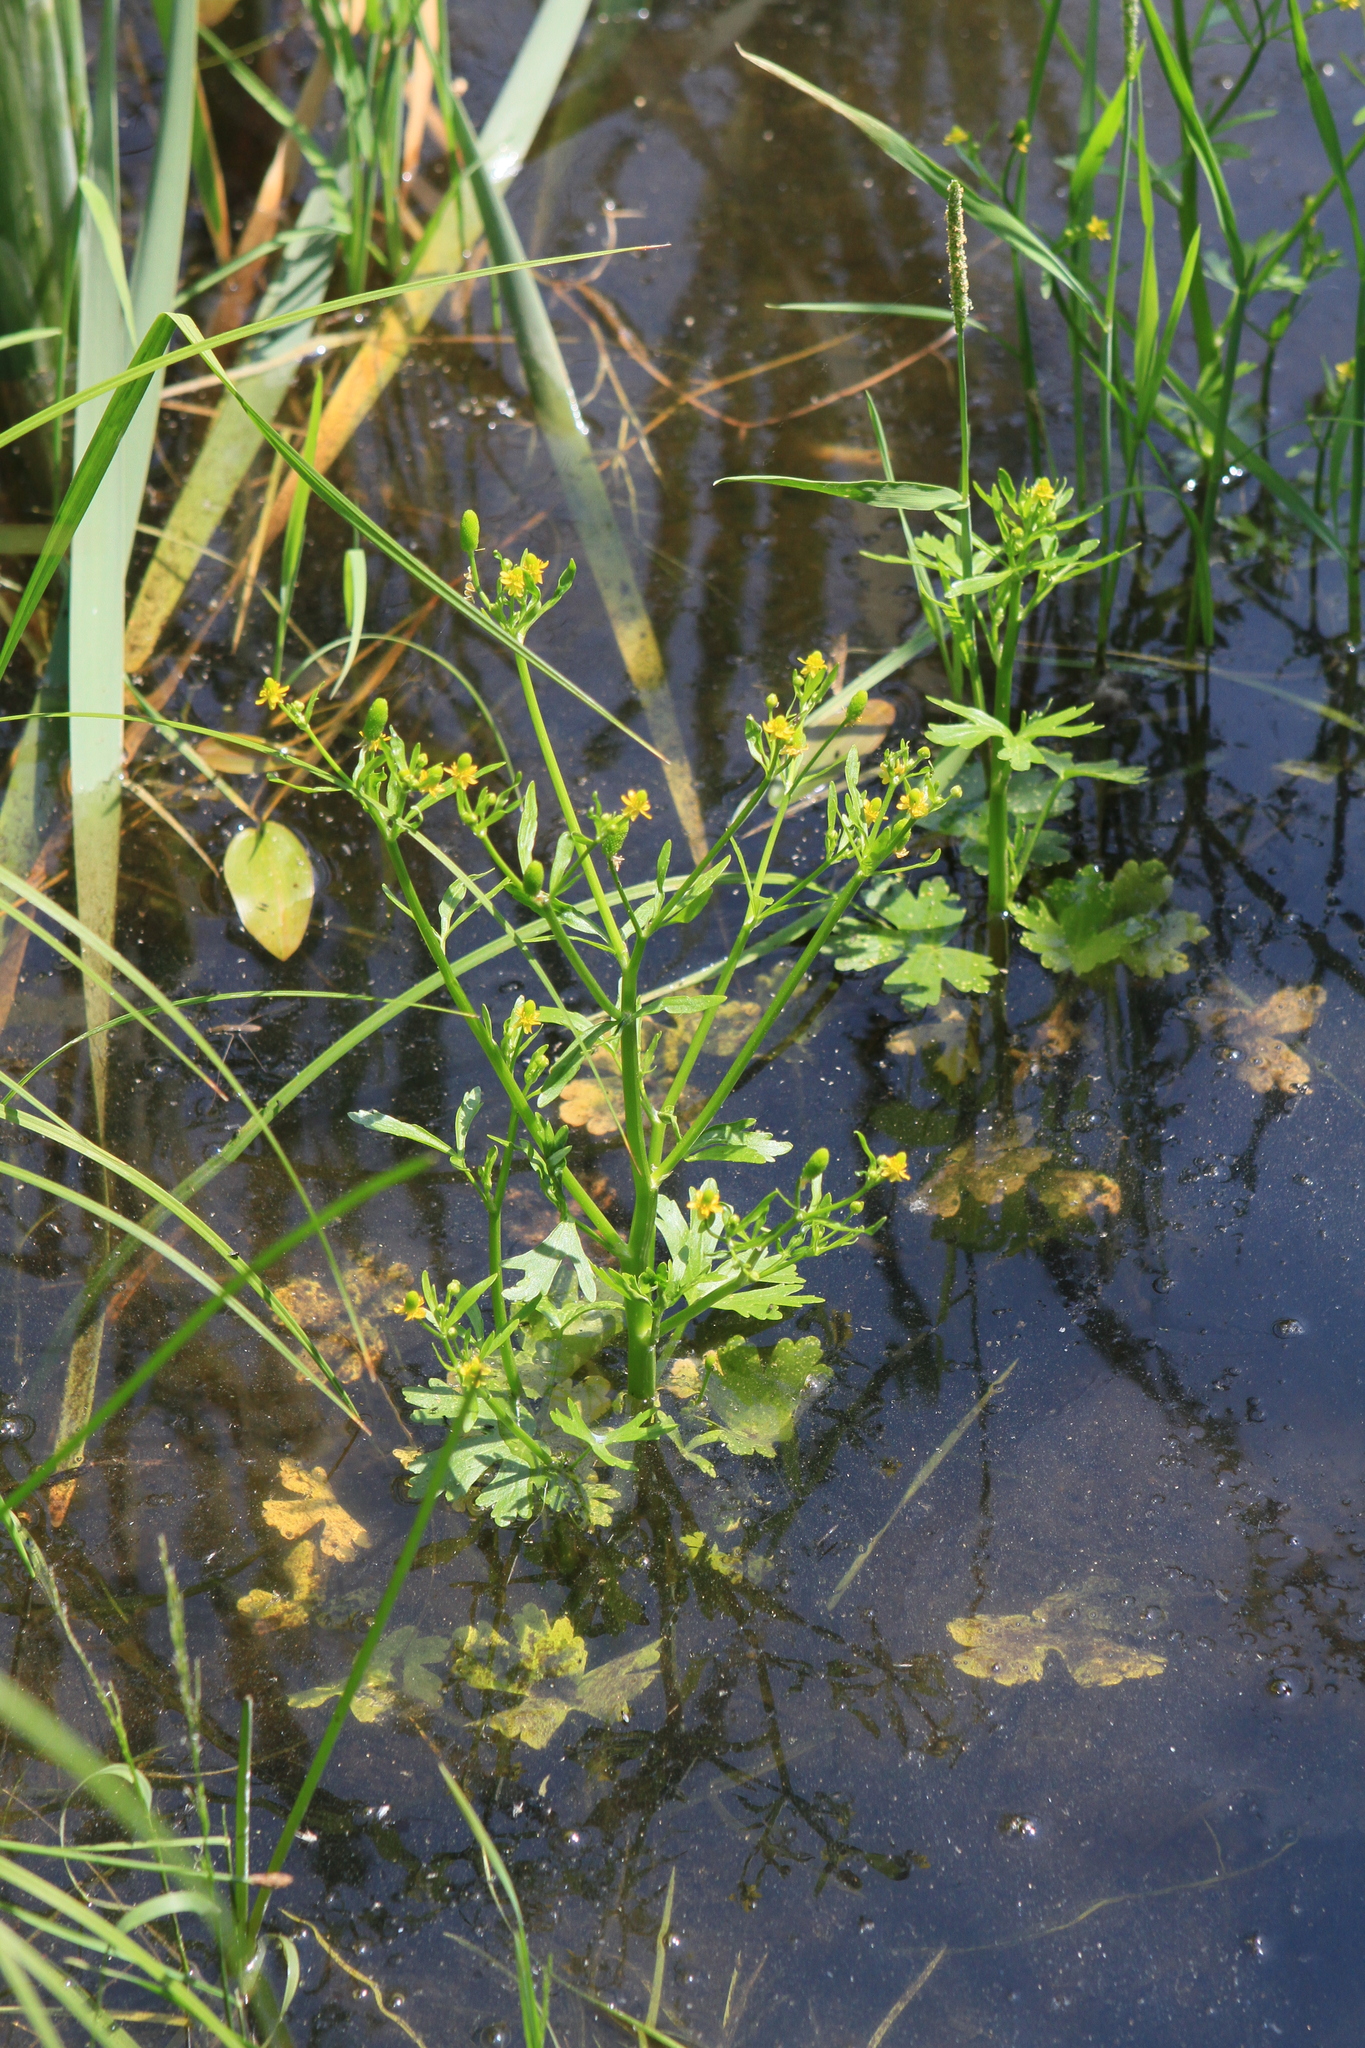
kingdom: Plantae
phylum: Tracheophyta
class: Magnoliopsida
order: Ranunculales
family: Ranunculaceae
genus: Ranunculus
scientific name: Ranunculus sceleratus
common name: Celery-leaved buttercup
